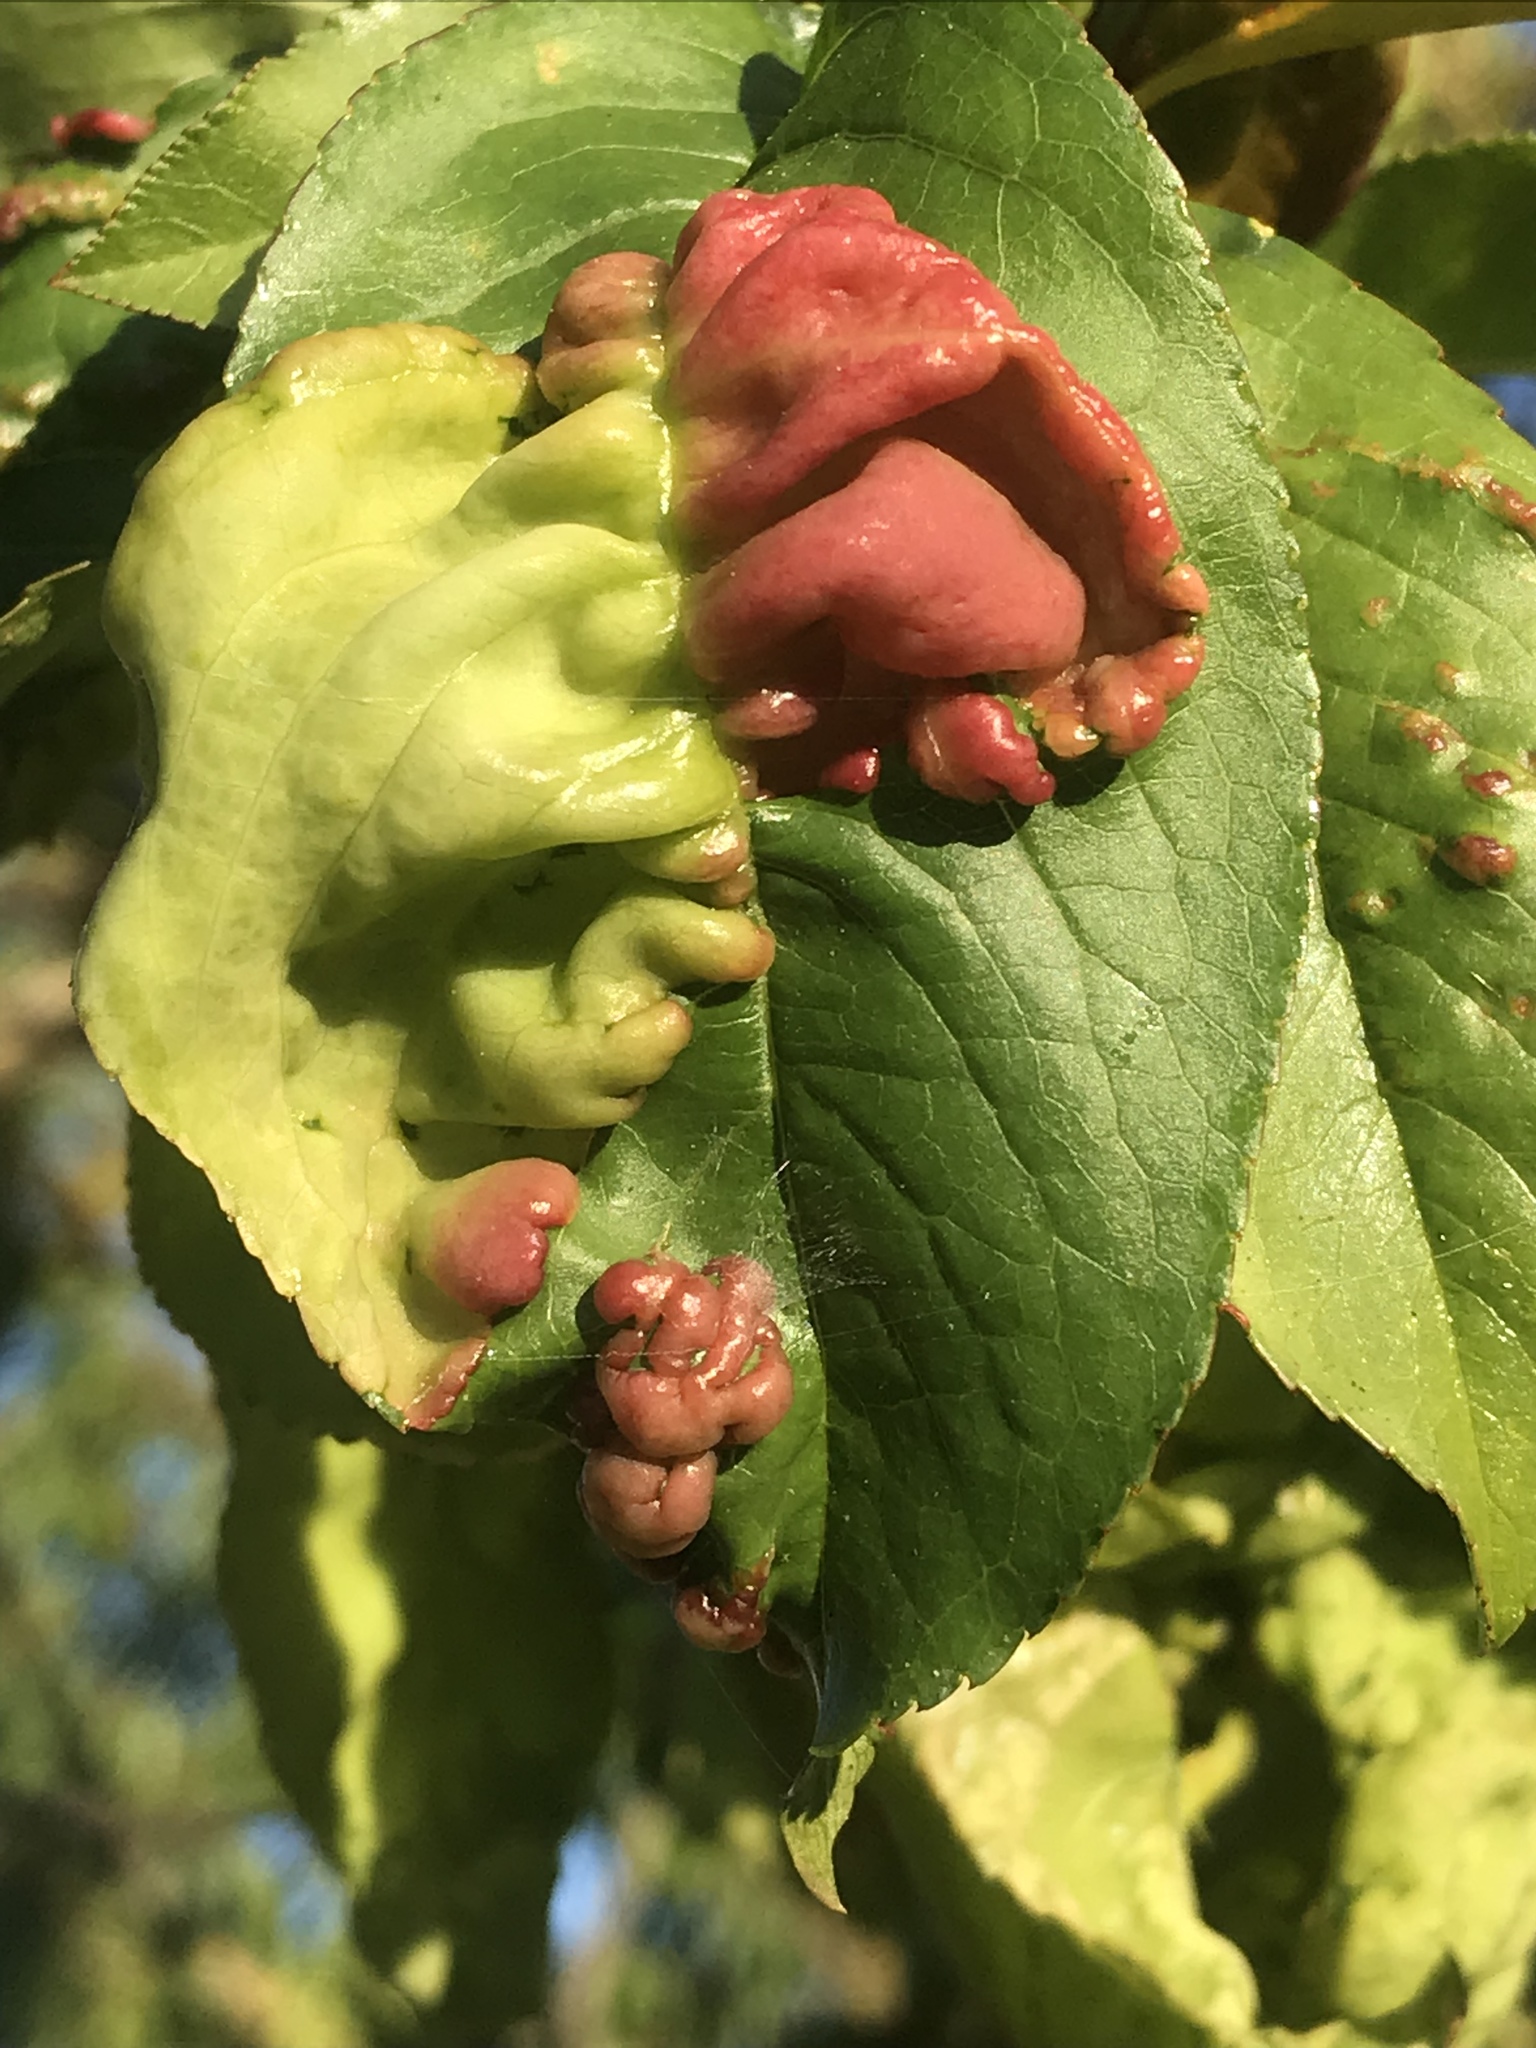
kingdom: Fungi
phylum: Ascomycota
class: Taphrinomycetes
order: Taphrinales
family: Taphrinaceae
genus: Taphrina
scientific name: Taphrina deformans
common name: Peach leaf curl
